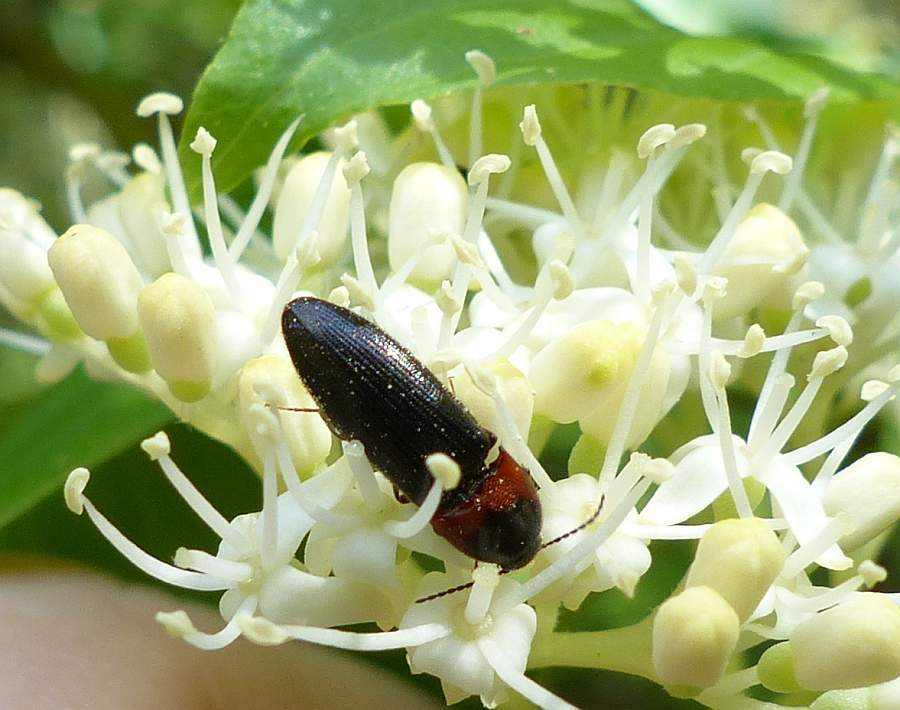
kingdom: Animalia
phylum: Arthropoda
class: Insecta
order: Coleoptera
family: Elateridae
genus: Ampedus
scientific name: Ampedus rubricus
